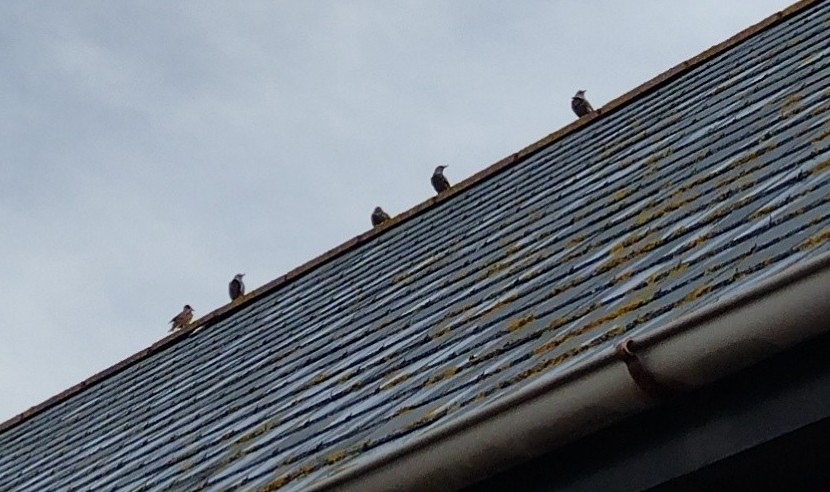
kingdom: Animalia
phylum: Chordata
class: Aves
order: Passeriformes
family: Sturnidae
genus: Sturnus
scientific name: Sturnus vulgaris
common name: Common starling
